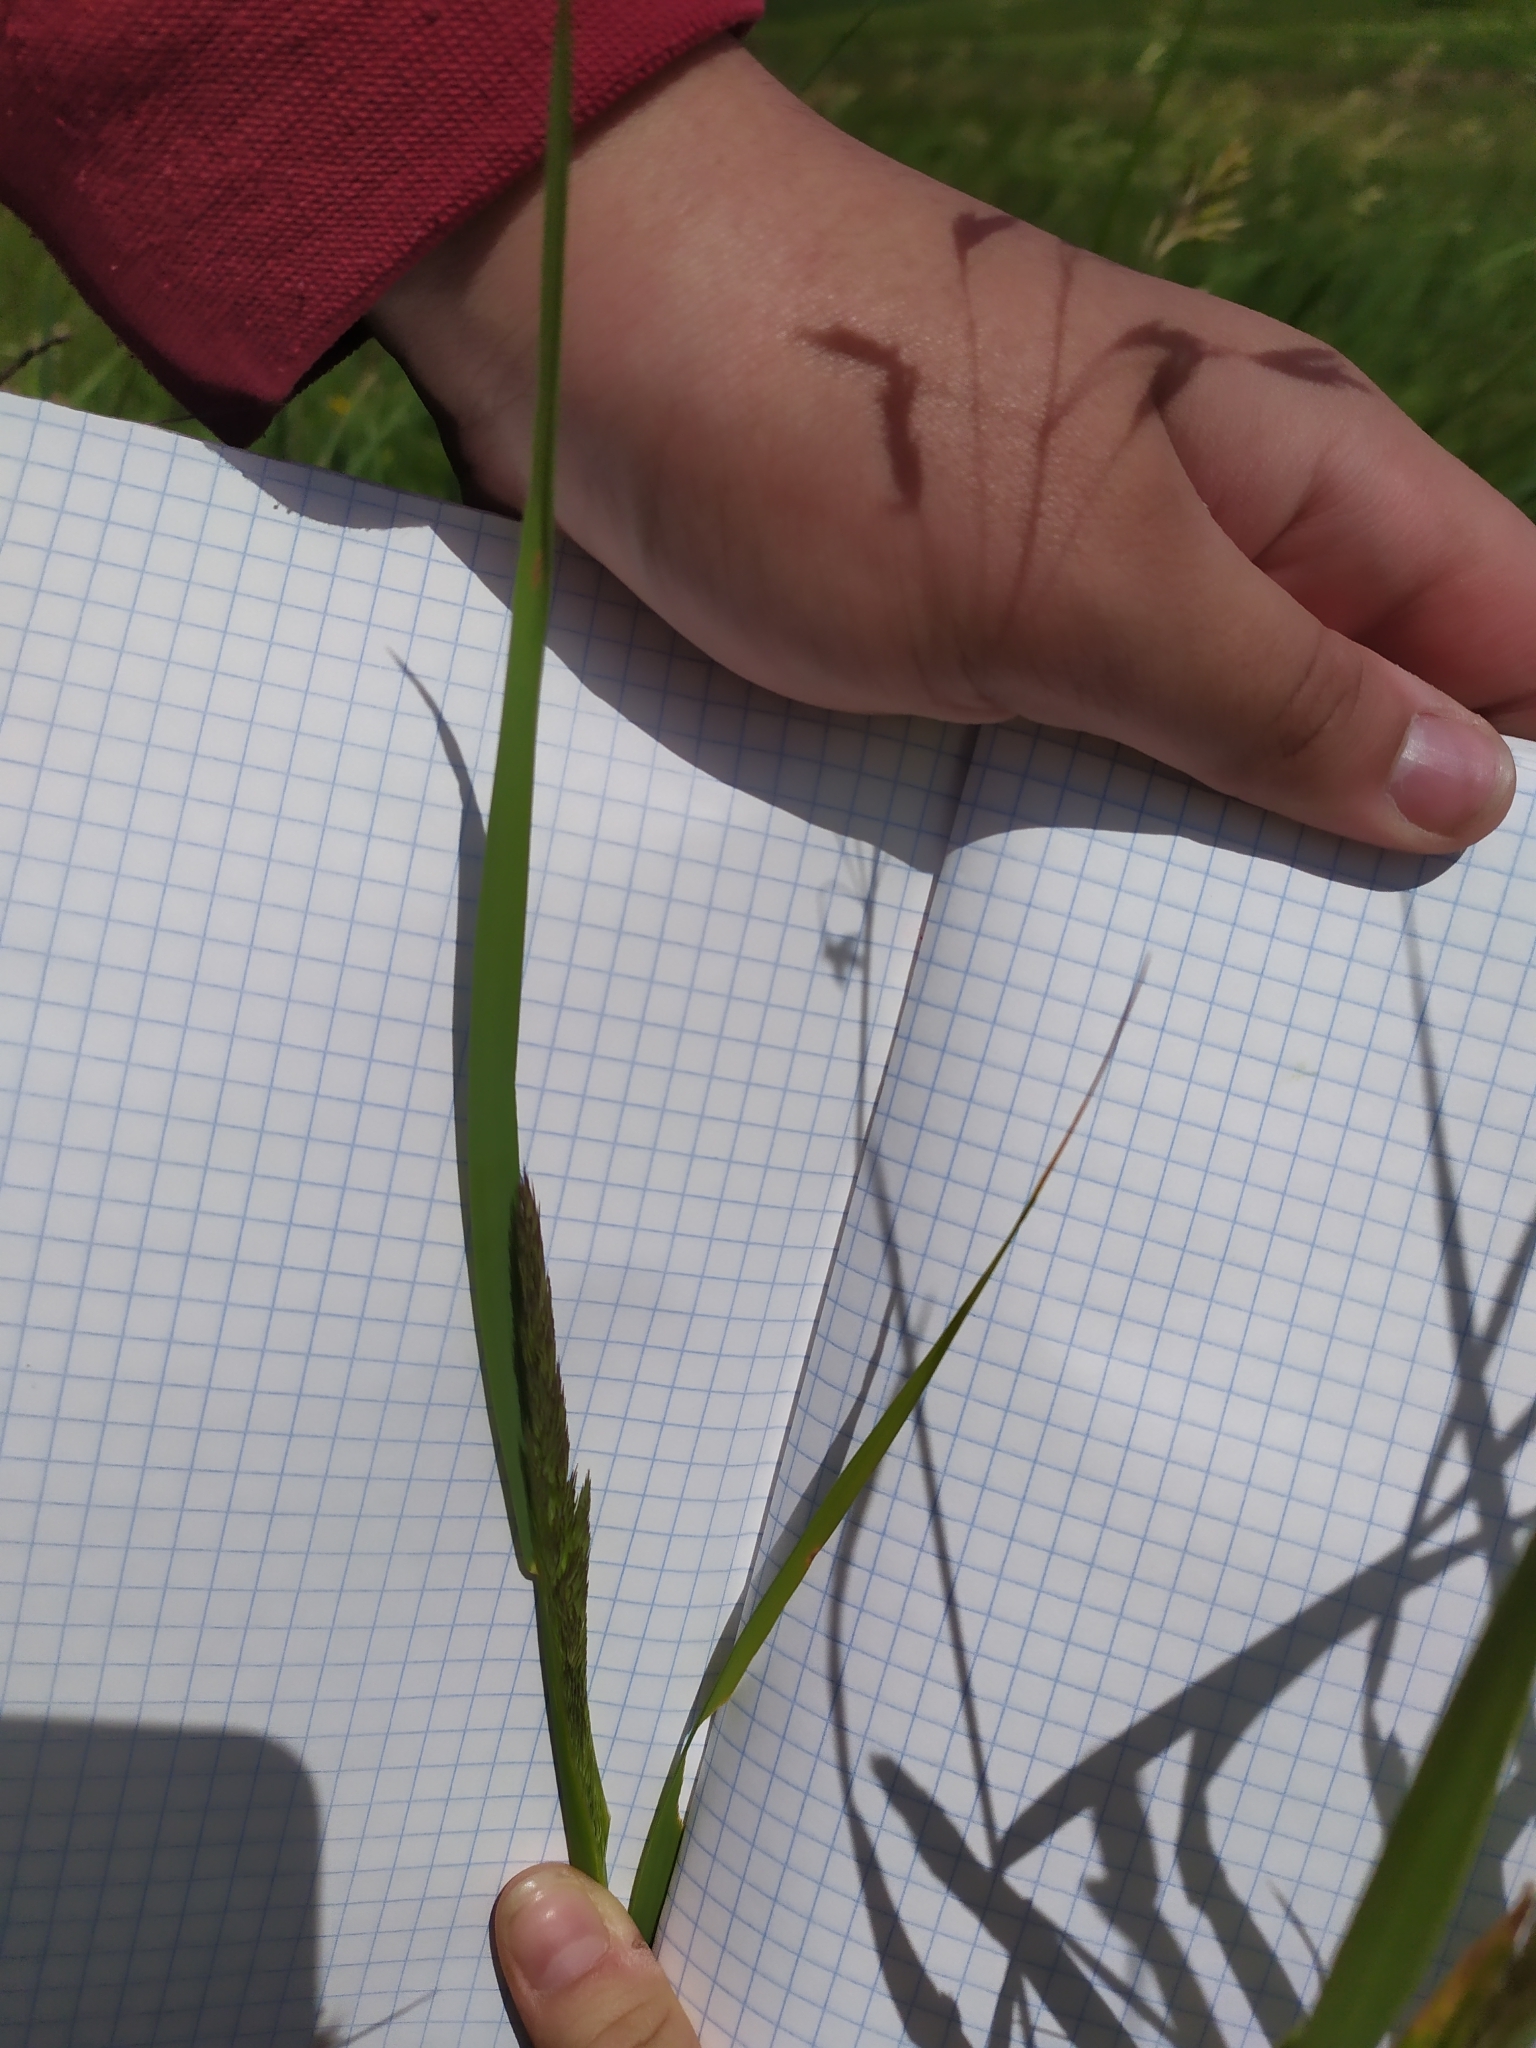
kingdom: Plantae
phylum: Tracheophyta
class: Liliopsida
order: Poales
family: Poaceae
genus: Calamagrostis
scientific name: Calamagrostis epigejos
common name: Wood small-reed
